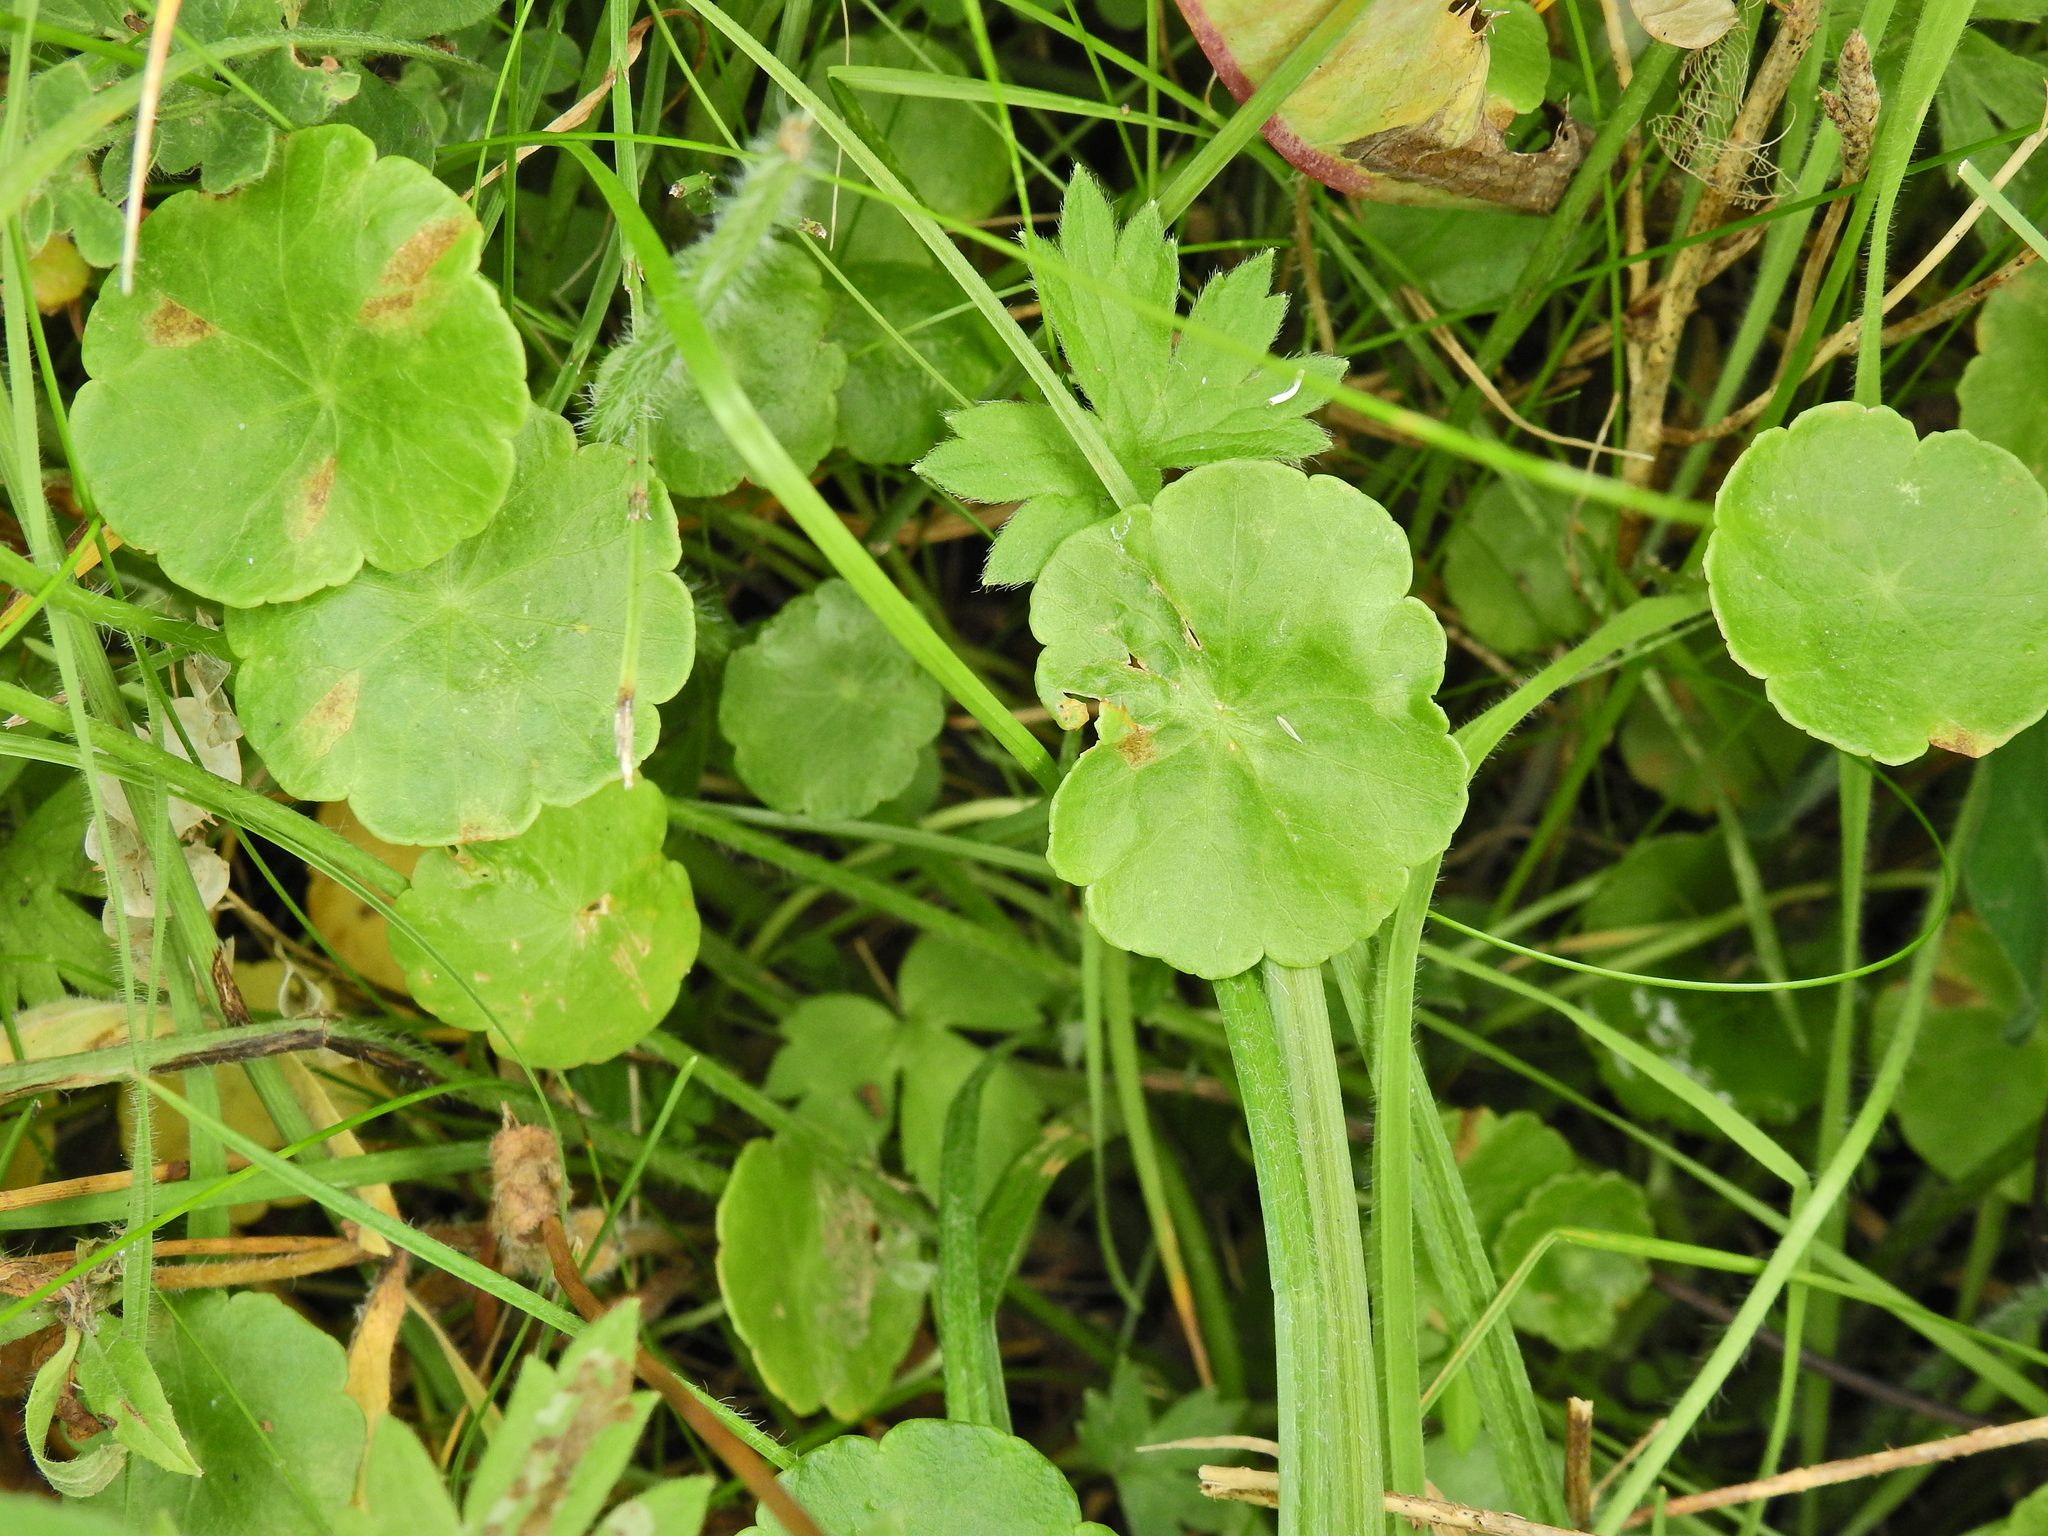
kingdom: Plantae
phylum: Tracheophyta
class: Magnoliopsida
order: Apiales
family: Araliaceae
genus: Hydrocotyle
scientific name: Hydrocotyle vulgaris
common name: Marsh pennywort
